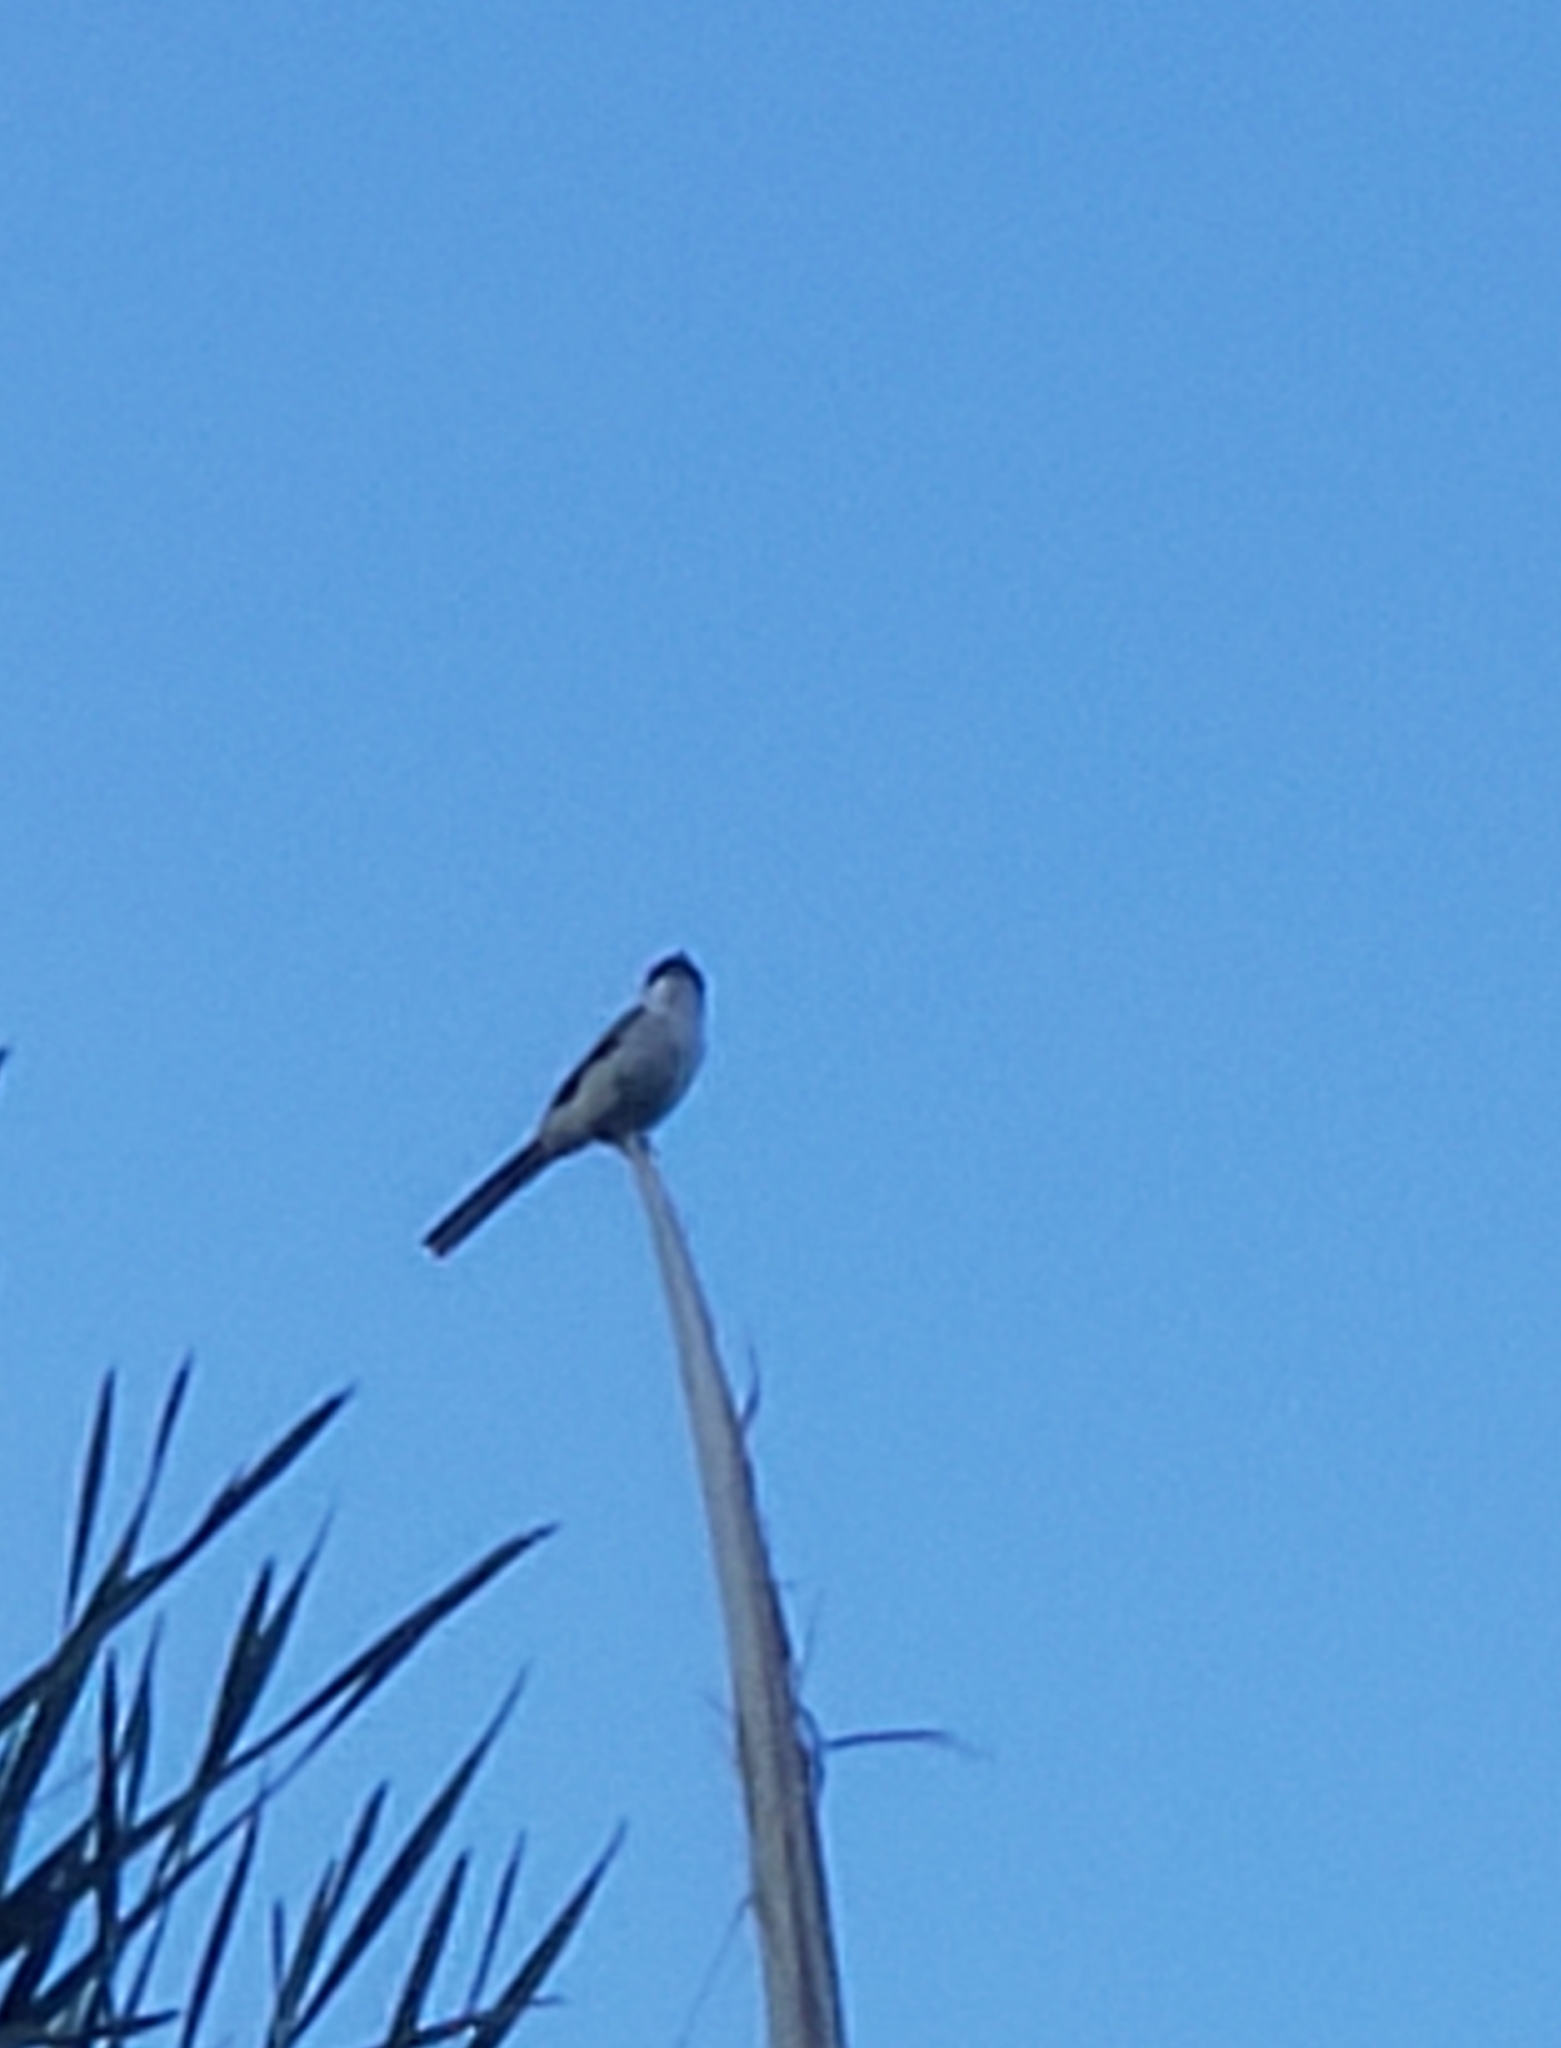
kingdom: Animalia
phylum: Chordata
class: Aves
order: Passeriformes
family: Laniidae
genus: Lanius
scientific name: Lanius ludovicianus
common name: Loggerhead shrike
